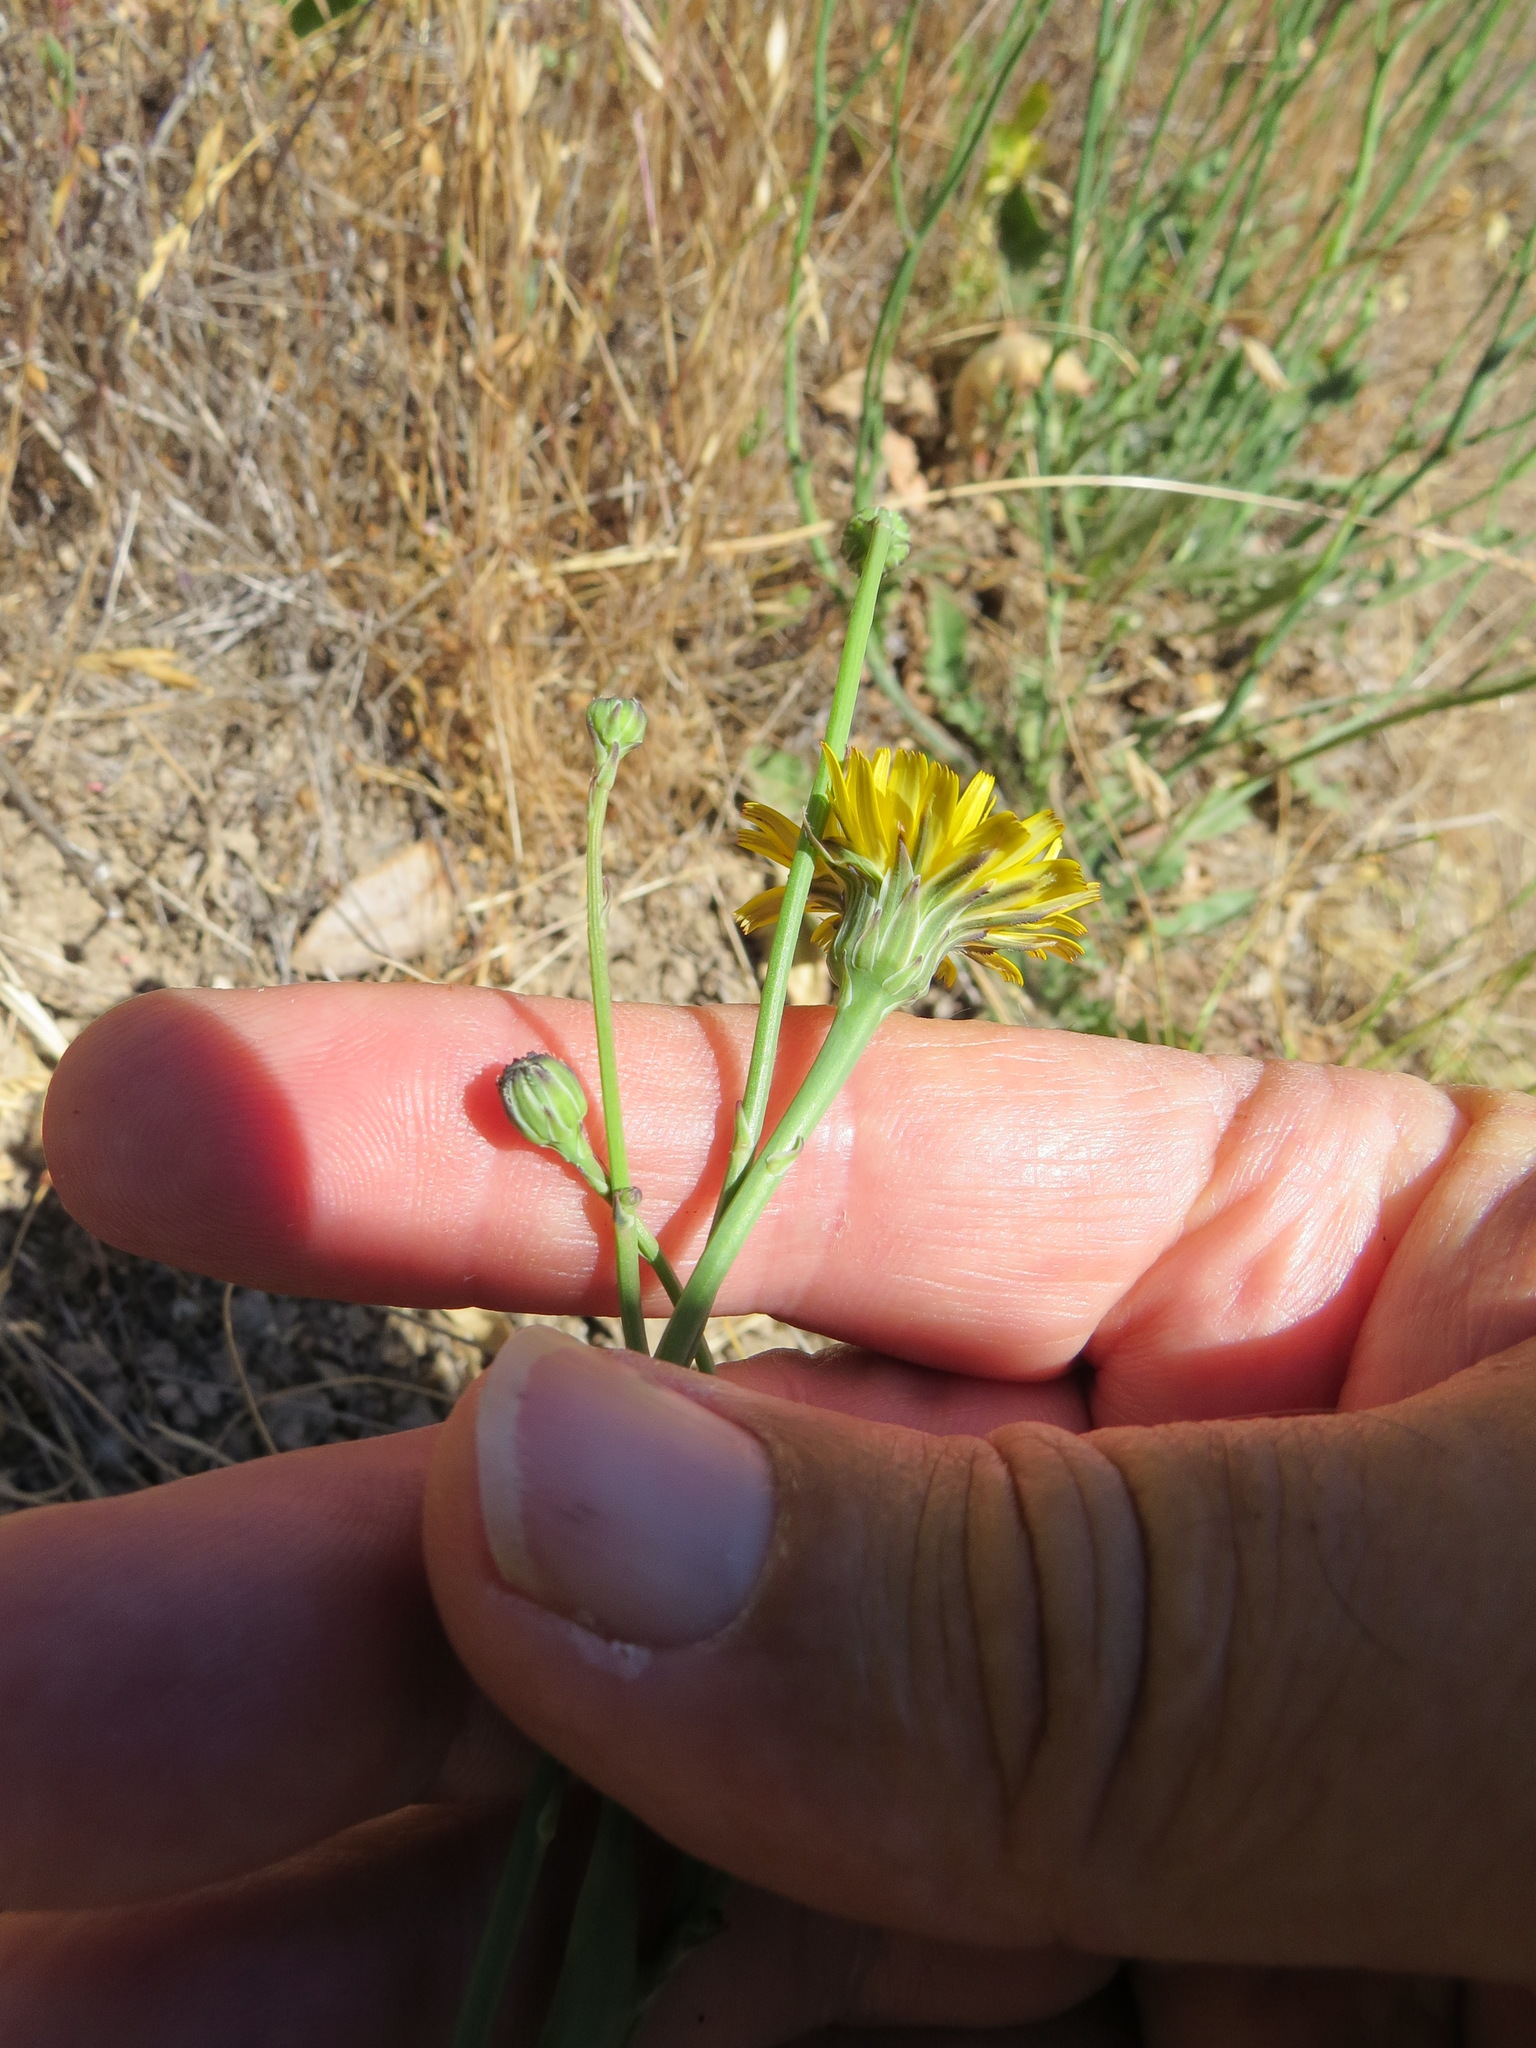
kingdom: Plantae
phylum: Tracheophyta
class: Magnoliopsida
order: Asterales
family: Asteraceae
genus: Hypochaeris
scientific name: Hypochaeris radicata
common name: Flatweed
